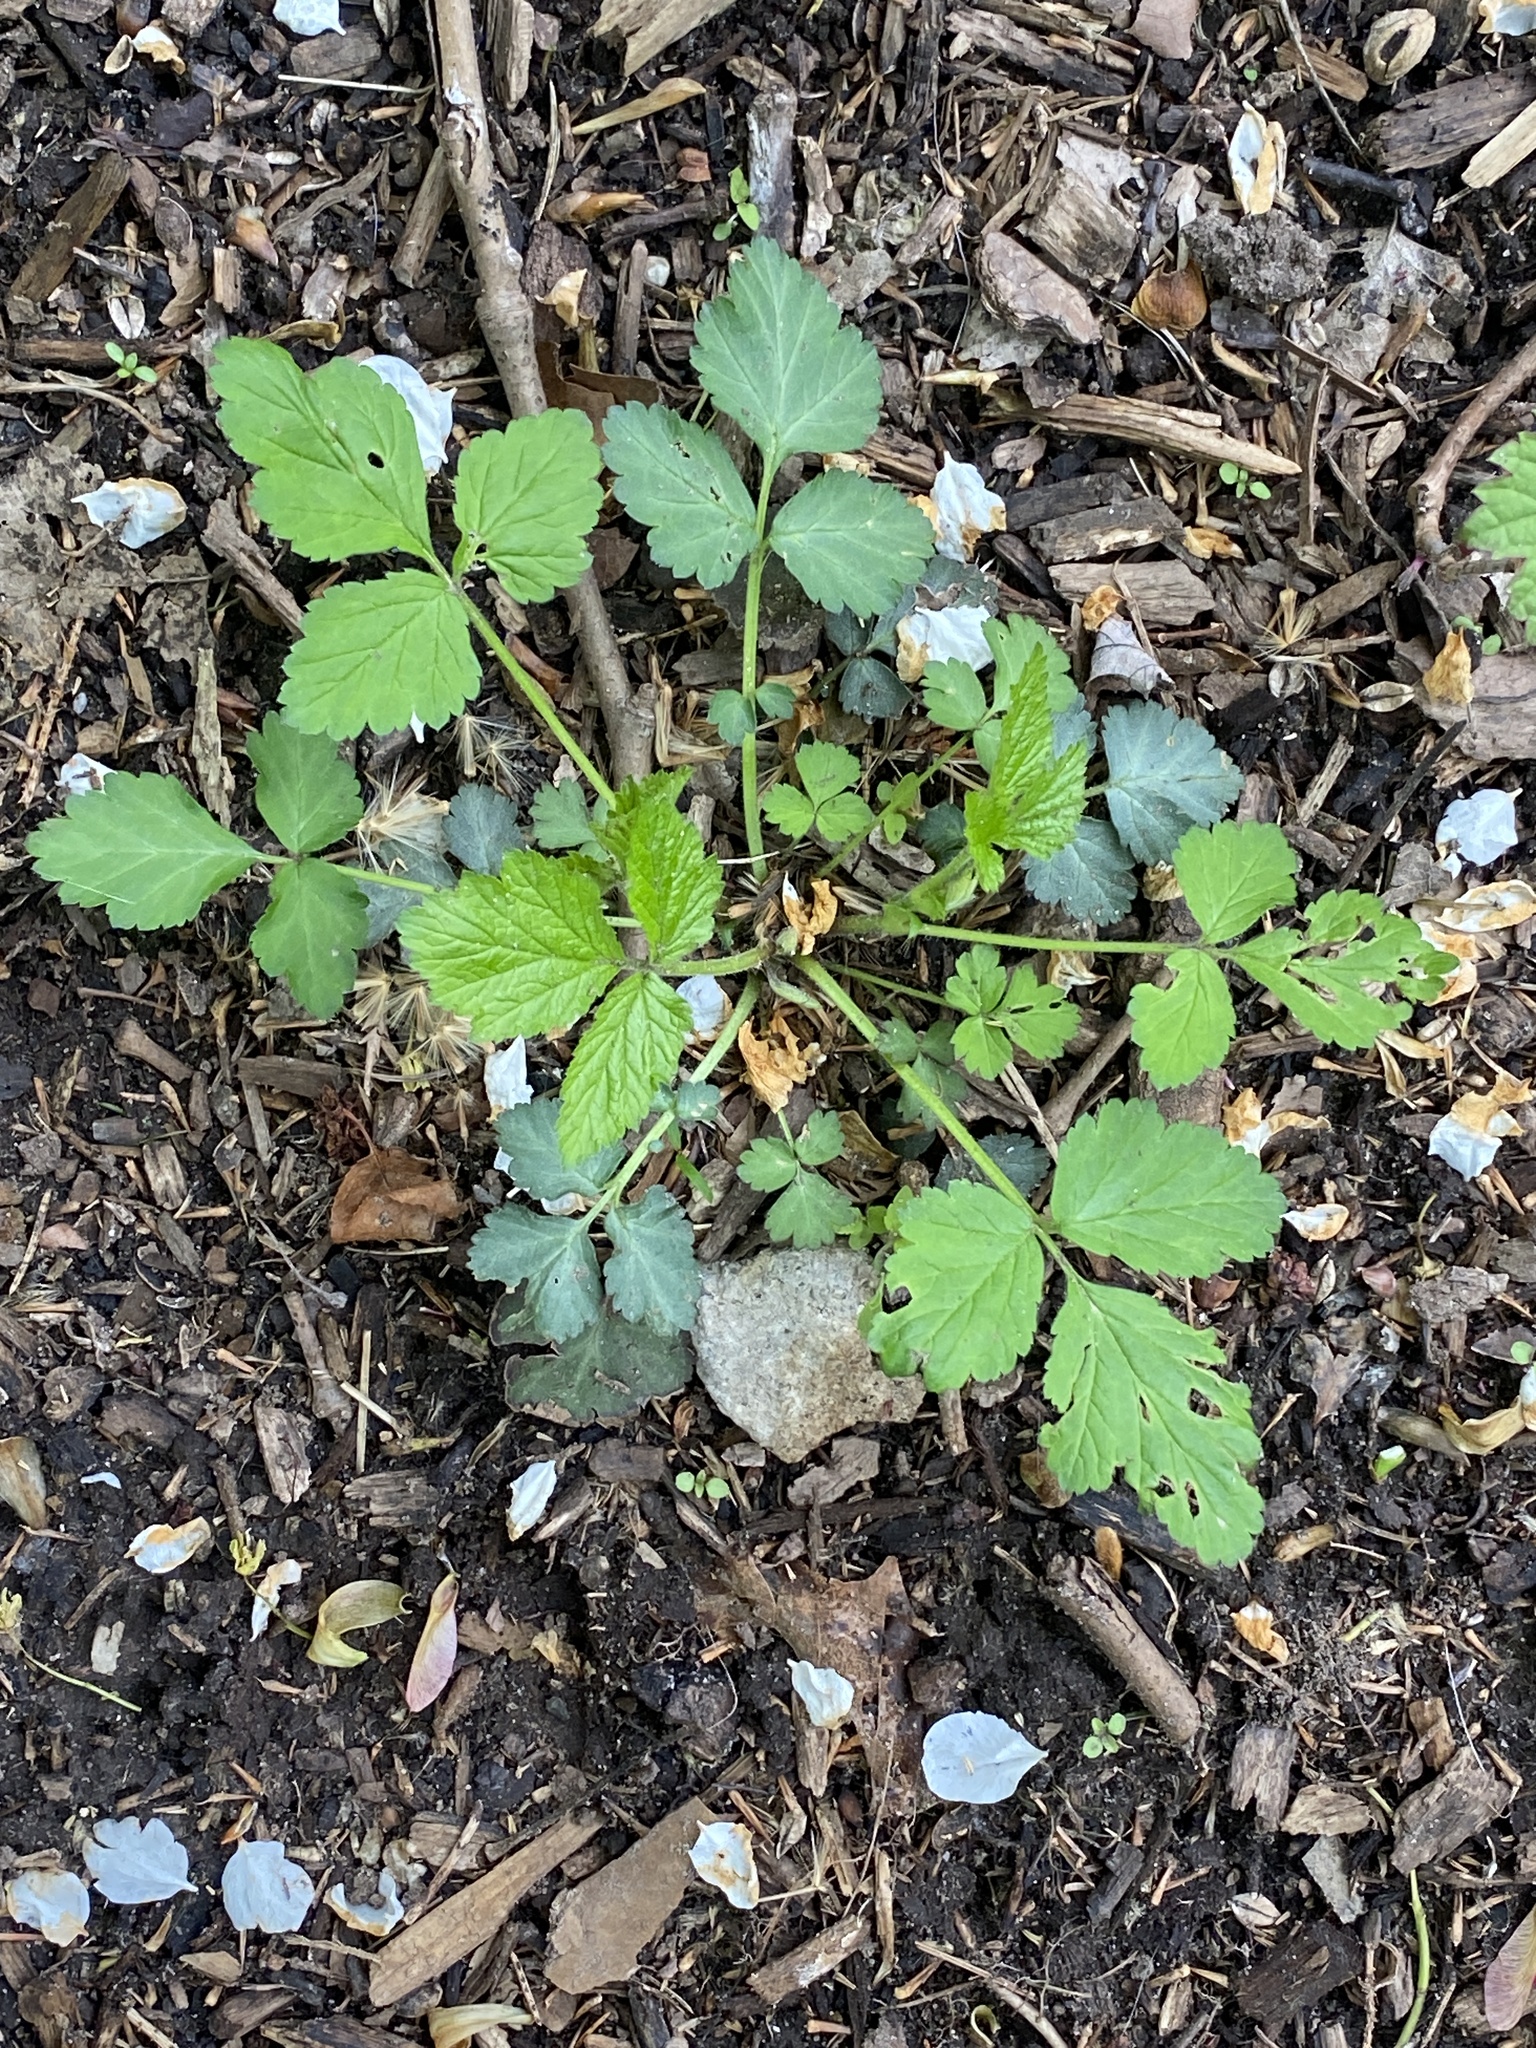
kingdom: Plantae
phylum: Tracheophyta
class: Magnoliopsida
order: Rosales
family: Rosaceae
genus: Geum
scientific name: Geum canadense
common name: White avens
